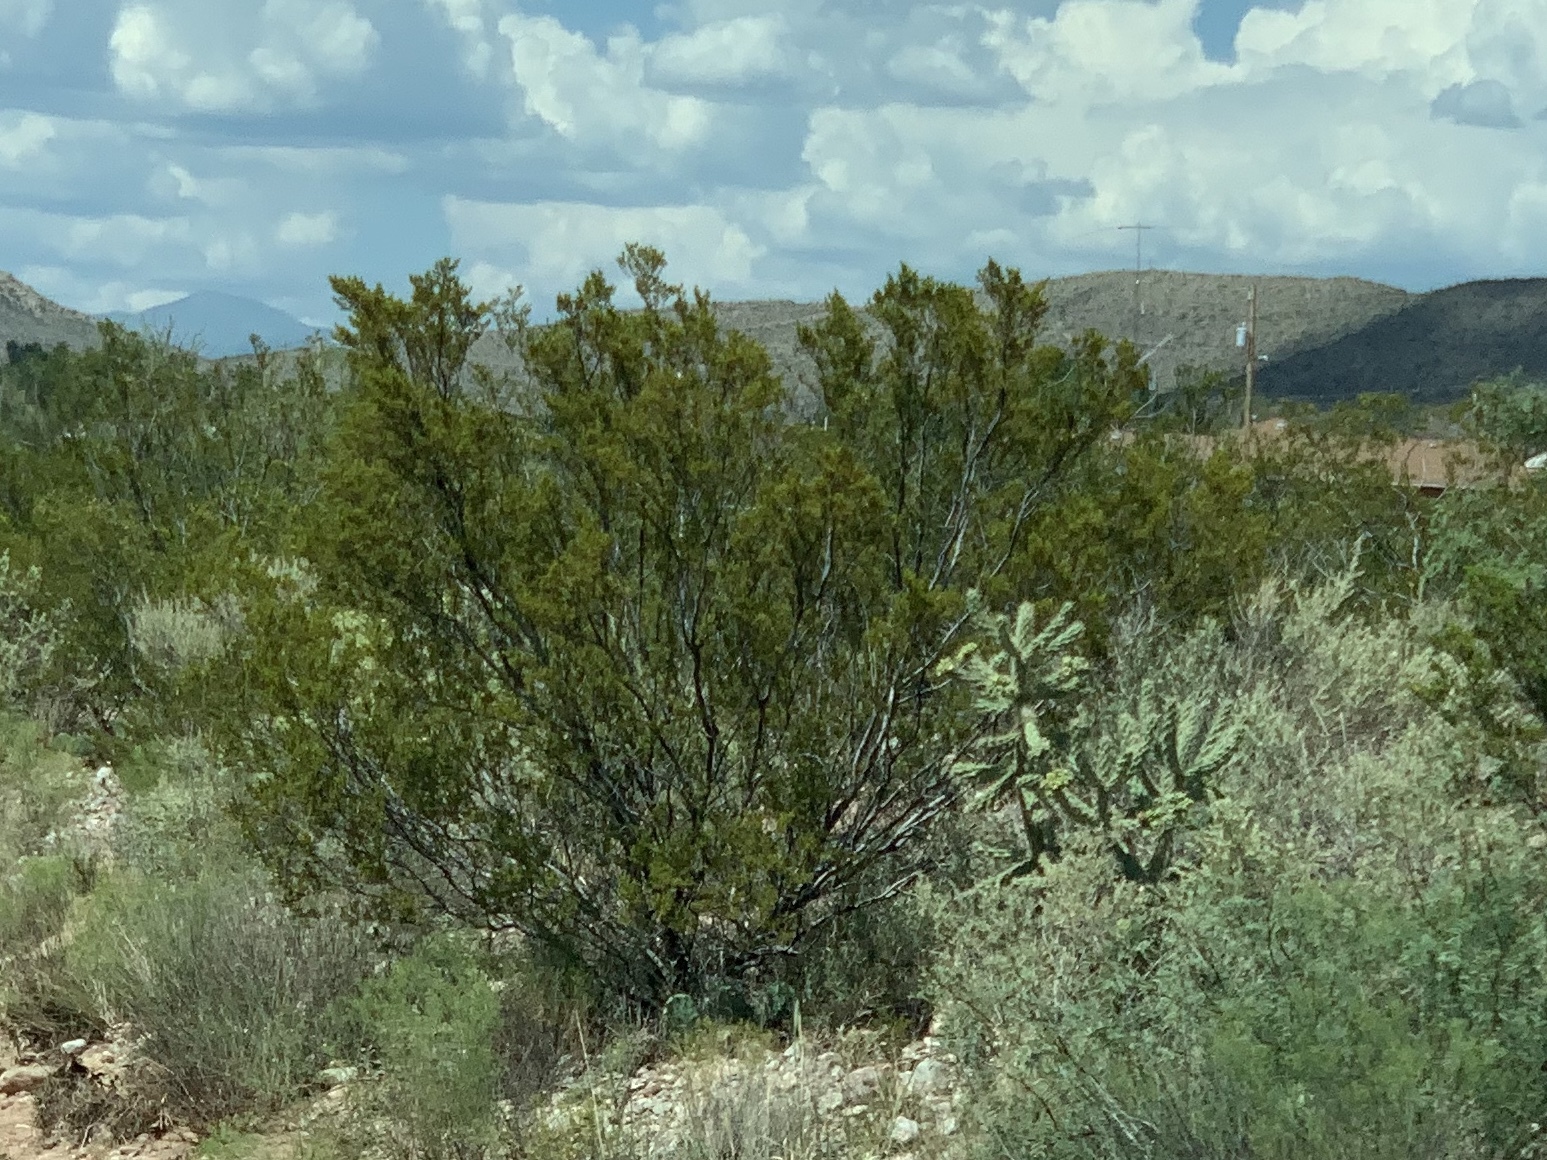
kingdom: Plantae
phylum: Tracheophyta
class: Magnoliopsida
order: Zygophyllales
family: Zygophyllaceae
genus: Larrea
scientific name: Larrea tridentata
